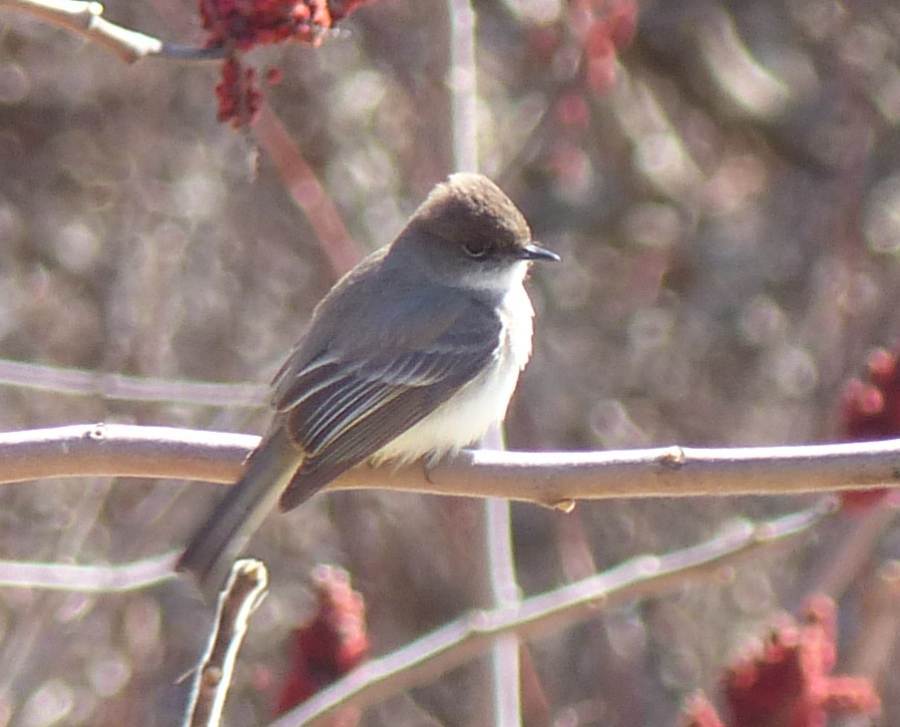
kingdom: Animalia
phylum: Chordata
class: Aves
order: Passeriformes
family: Tyrannidae
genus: Sayornis
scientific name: Sayornis phoebe
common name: Eastern phoebe
